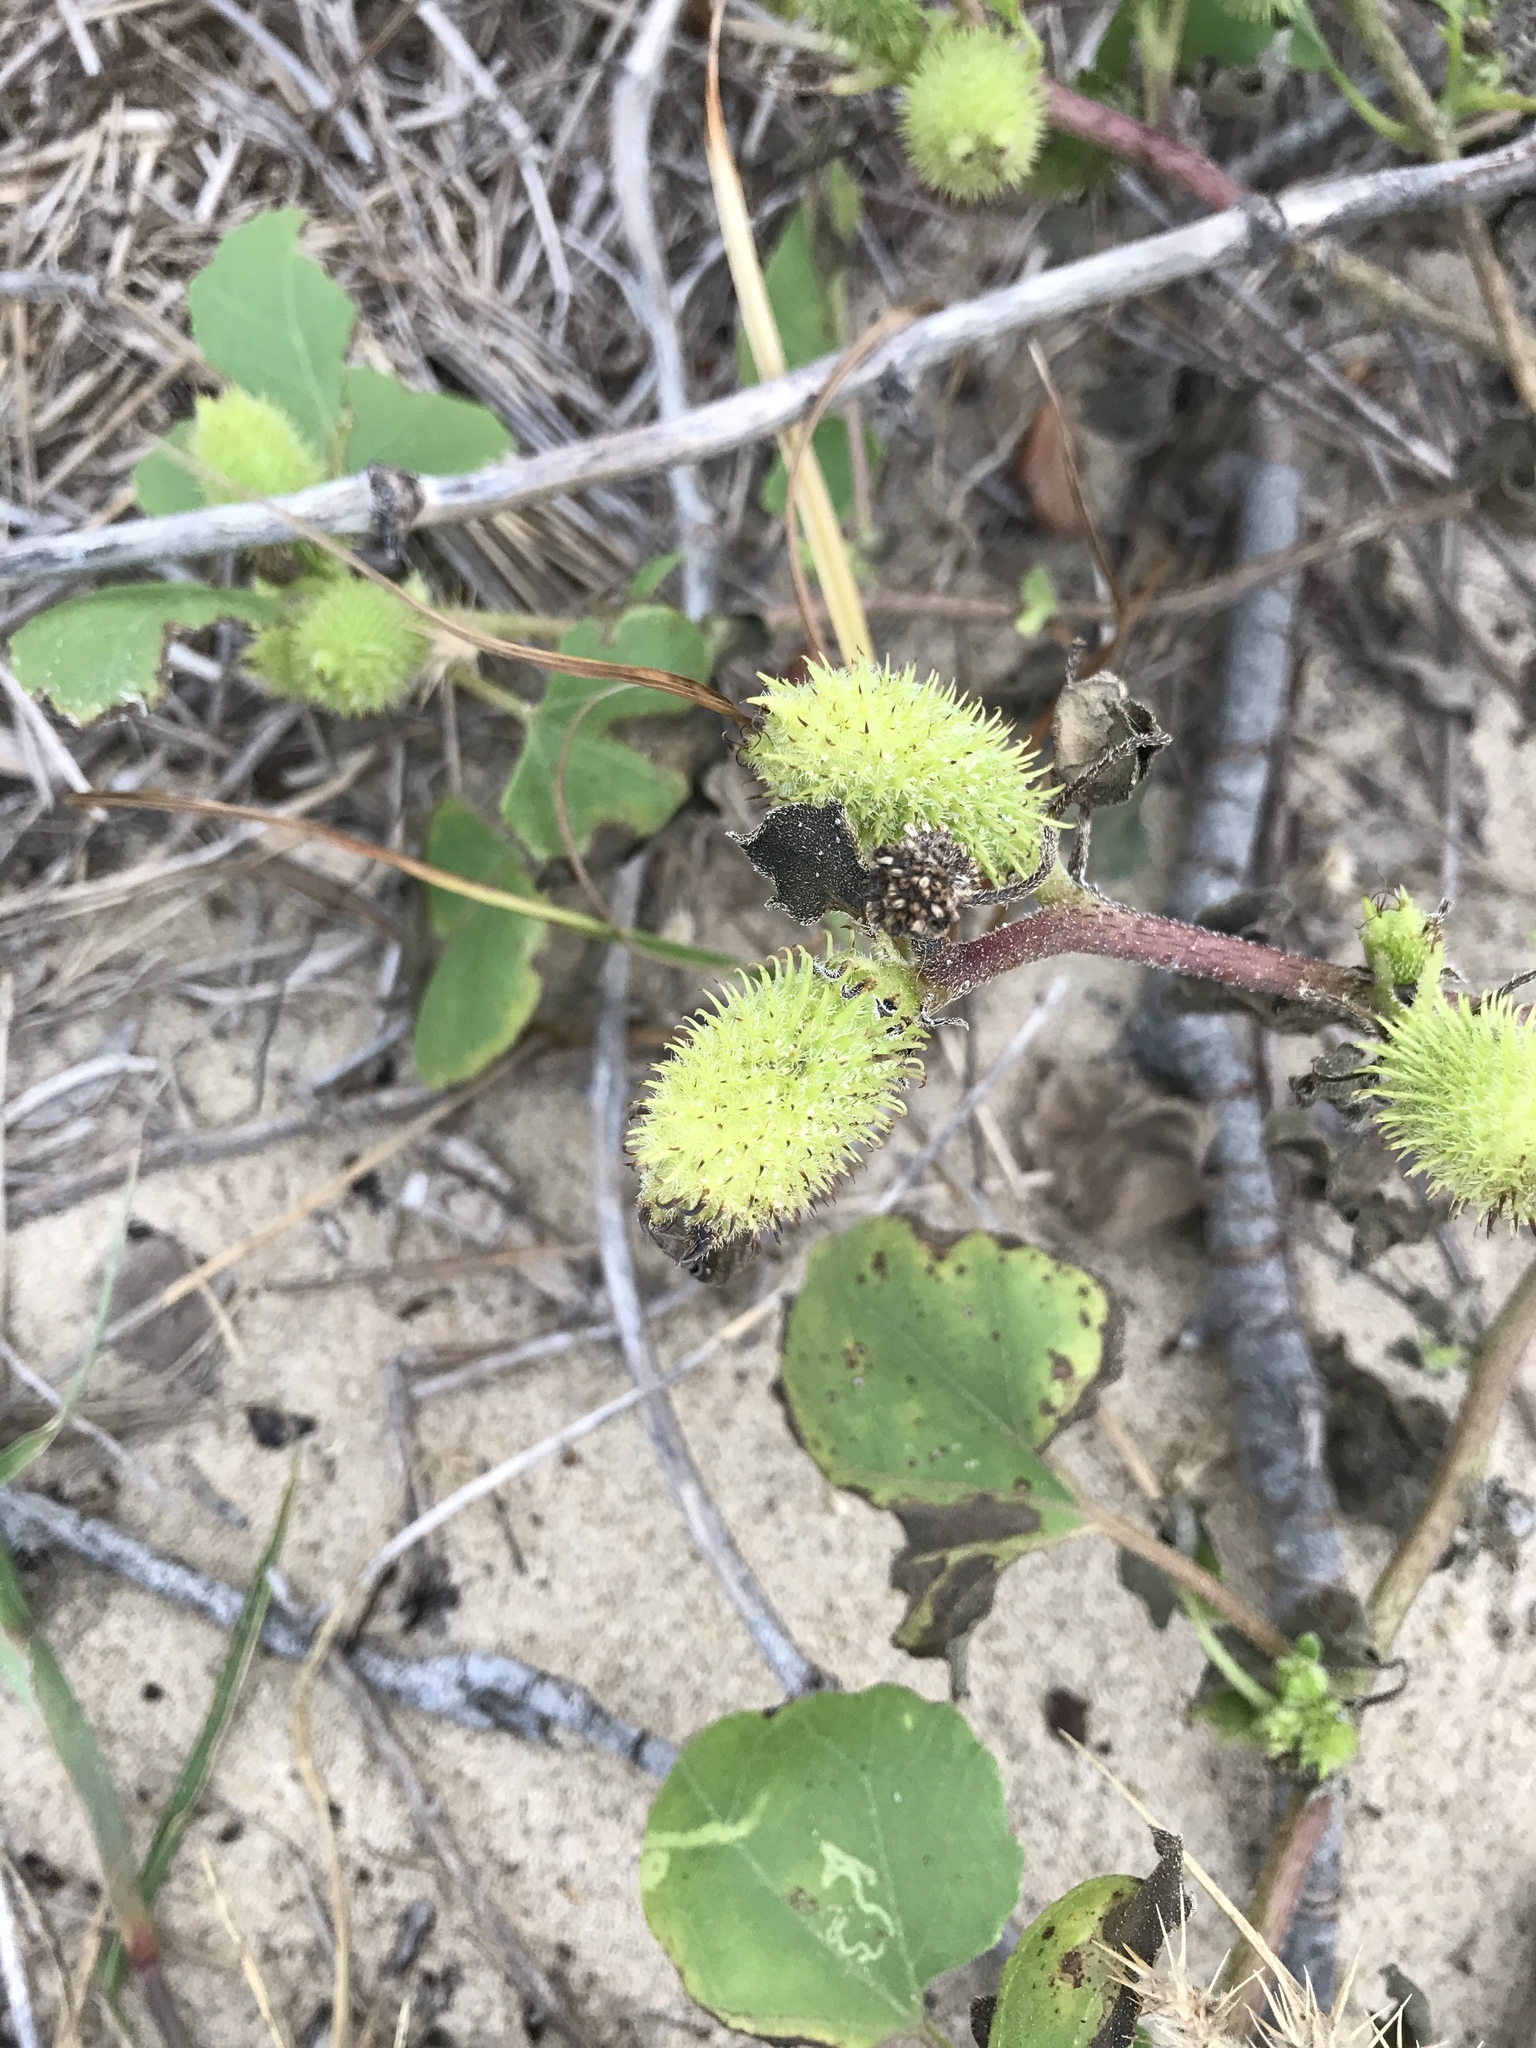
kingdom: Plantae
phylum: Tracheophyta
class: Magnoliopsida
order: Asterales
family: Asteraceae
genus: Xanthium
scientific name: Xanthium strumarium
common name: Rough cocklebur
